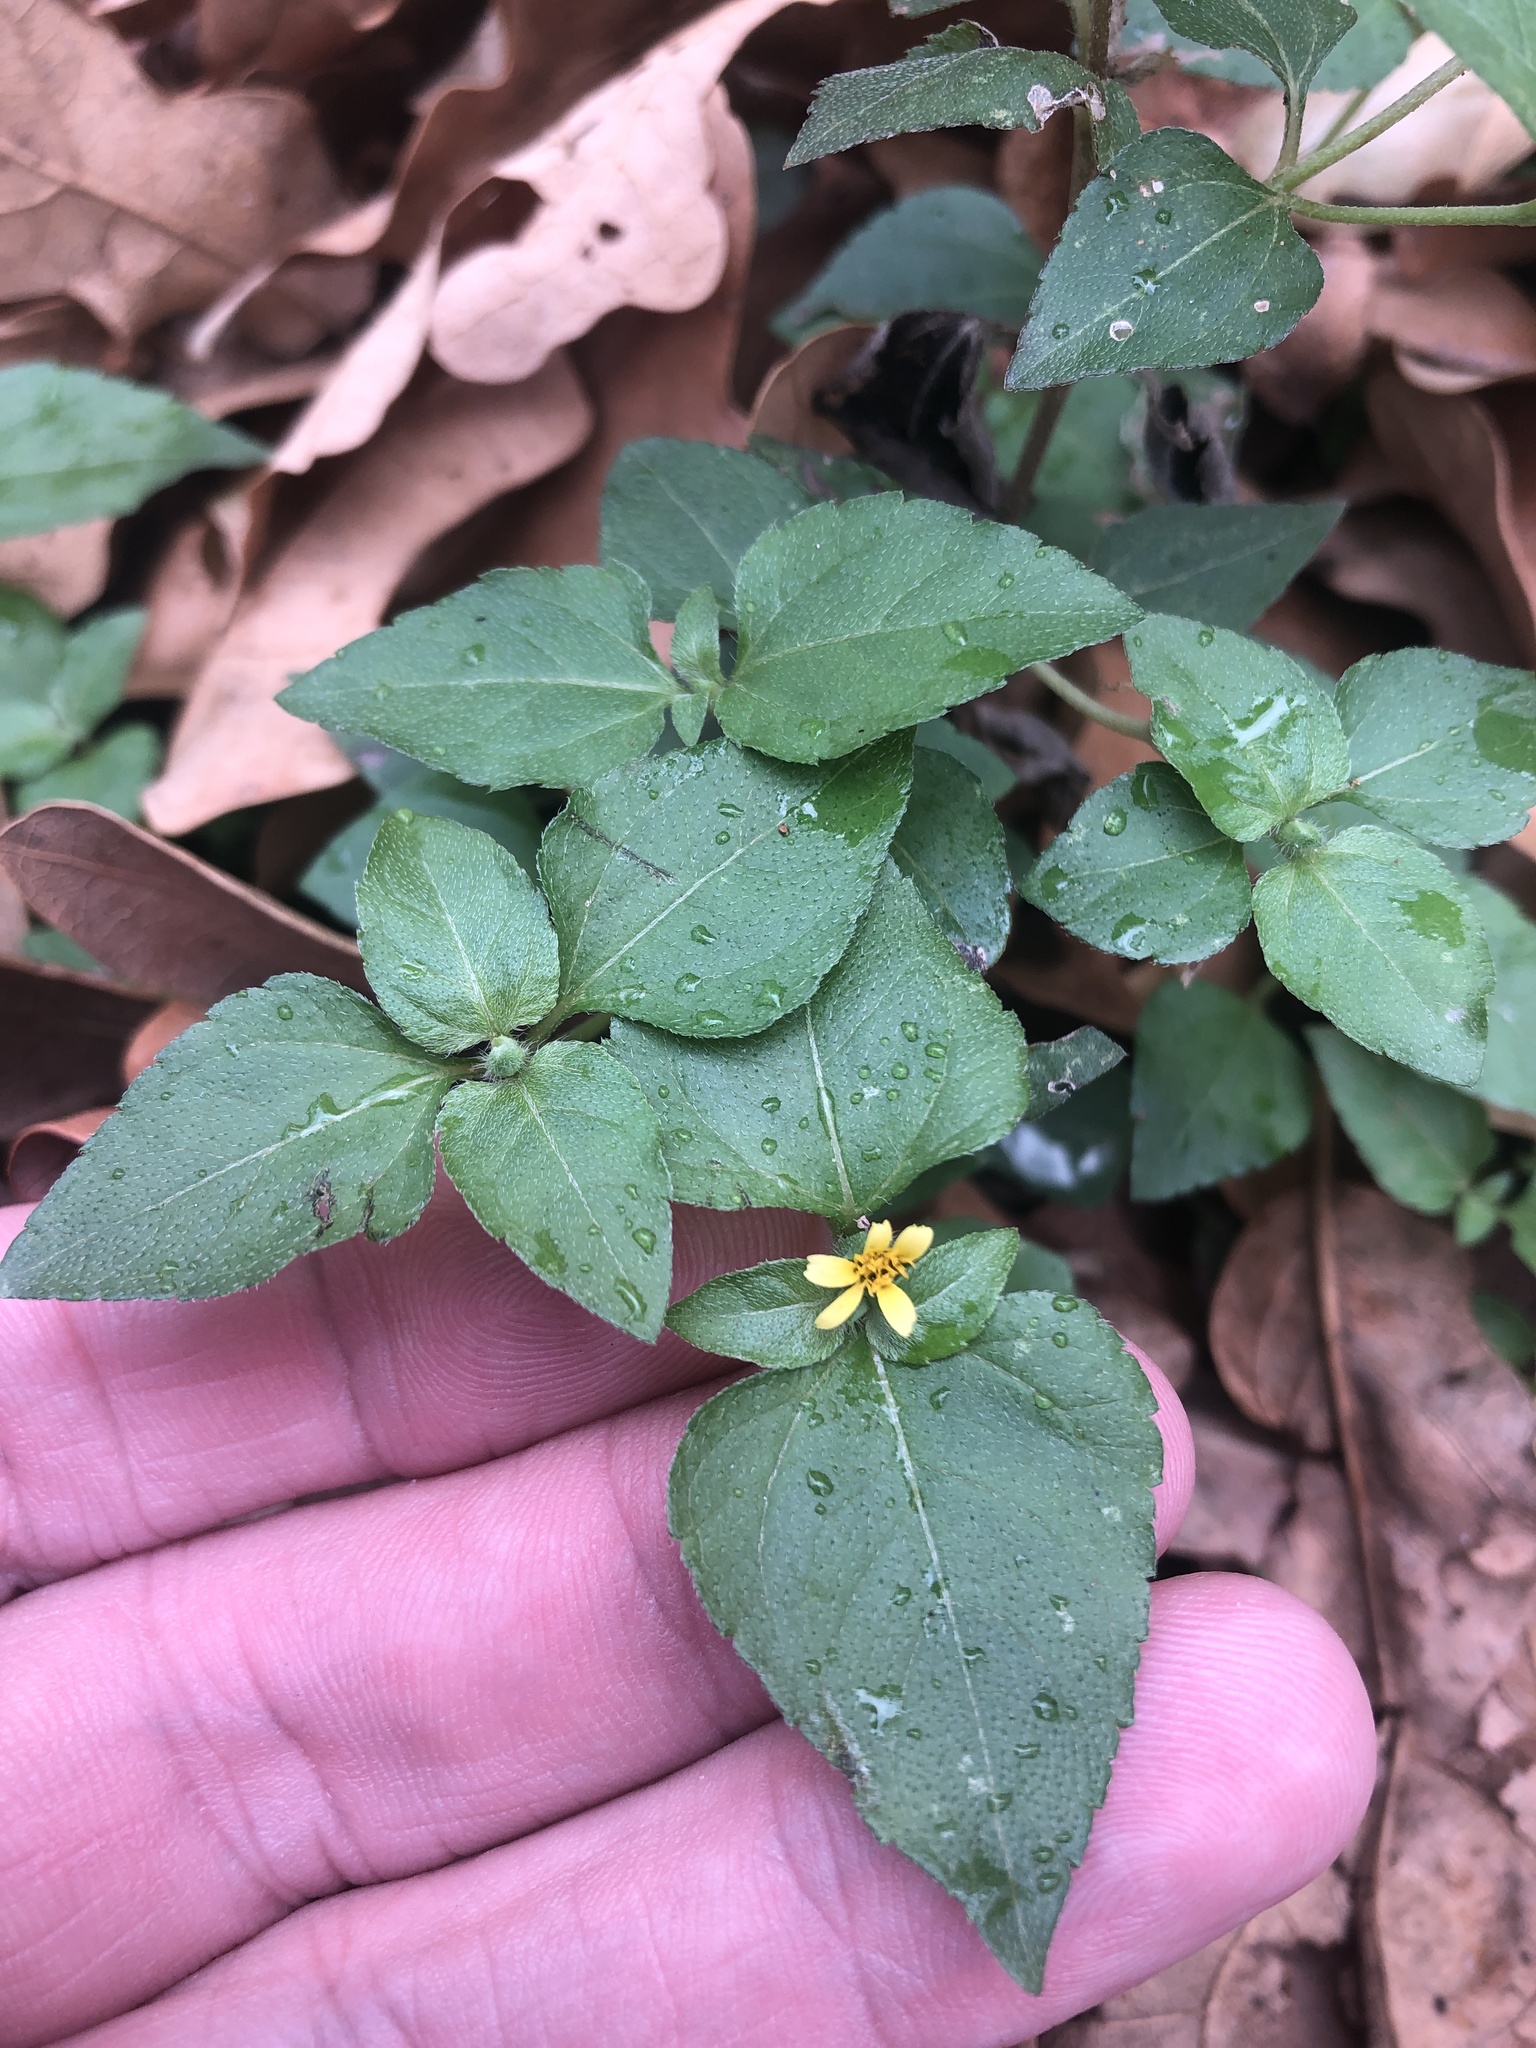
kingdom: Plantae
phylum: Tracheophyta
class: Magnoliopsida
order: Asterales
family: Asteraceae
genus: Calyptocarpus
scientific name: Calyptocarpus vialis
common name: Straggler daisy
